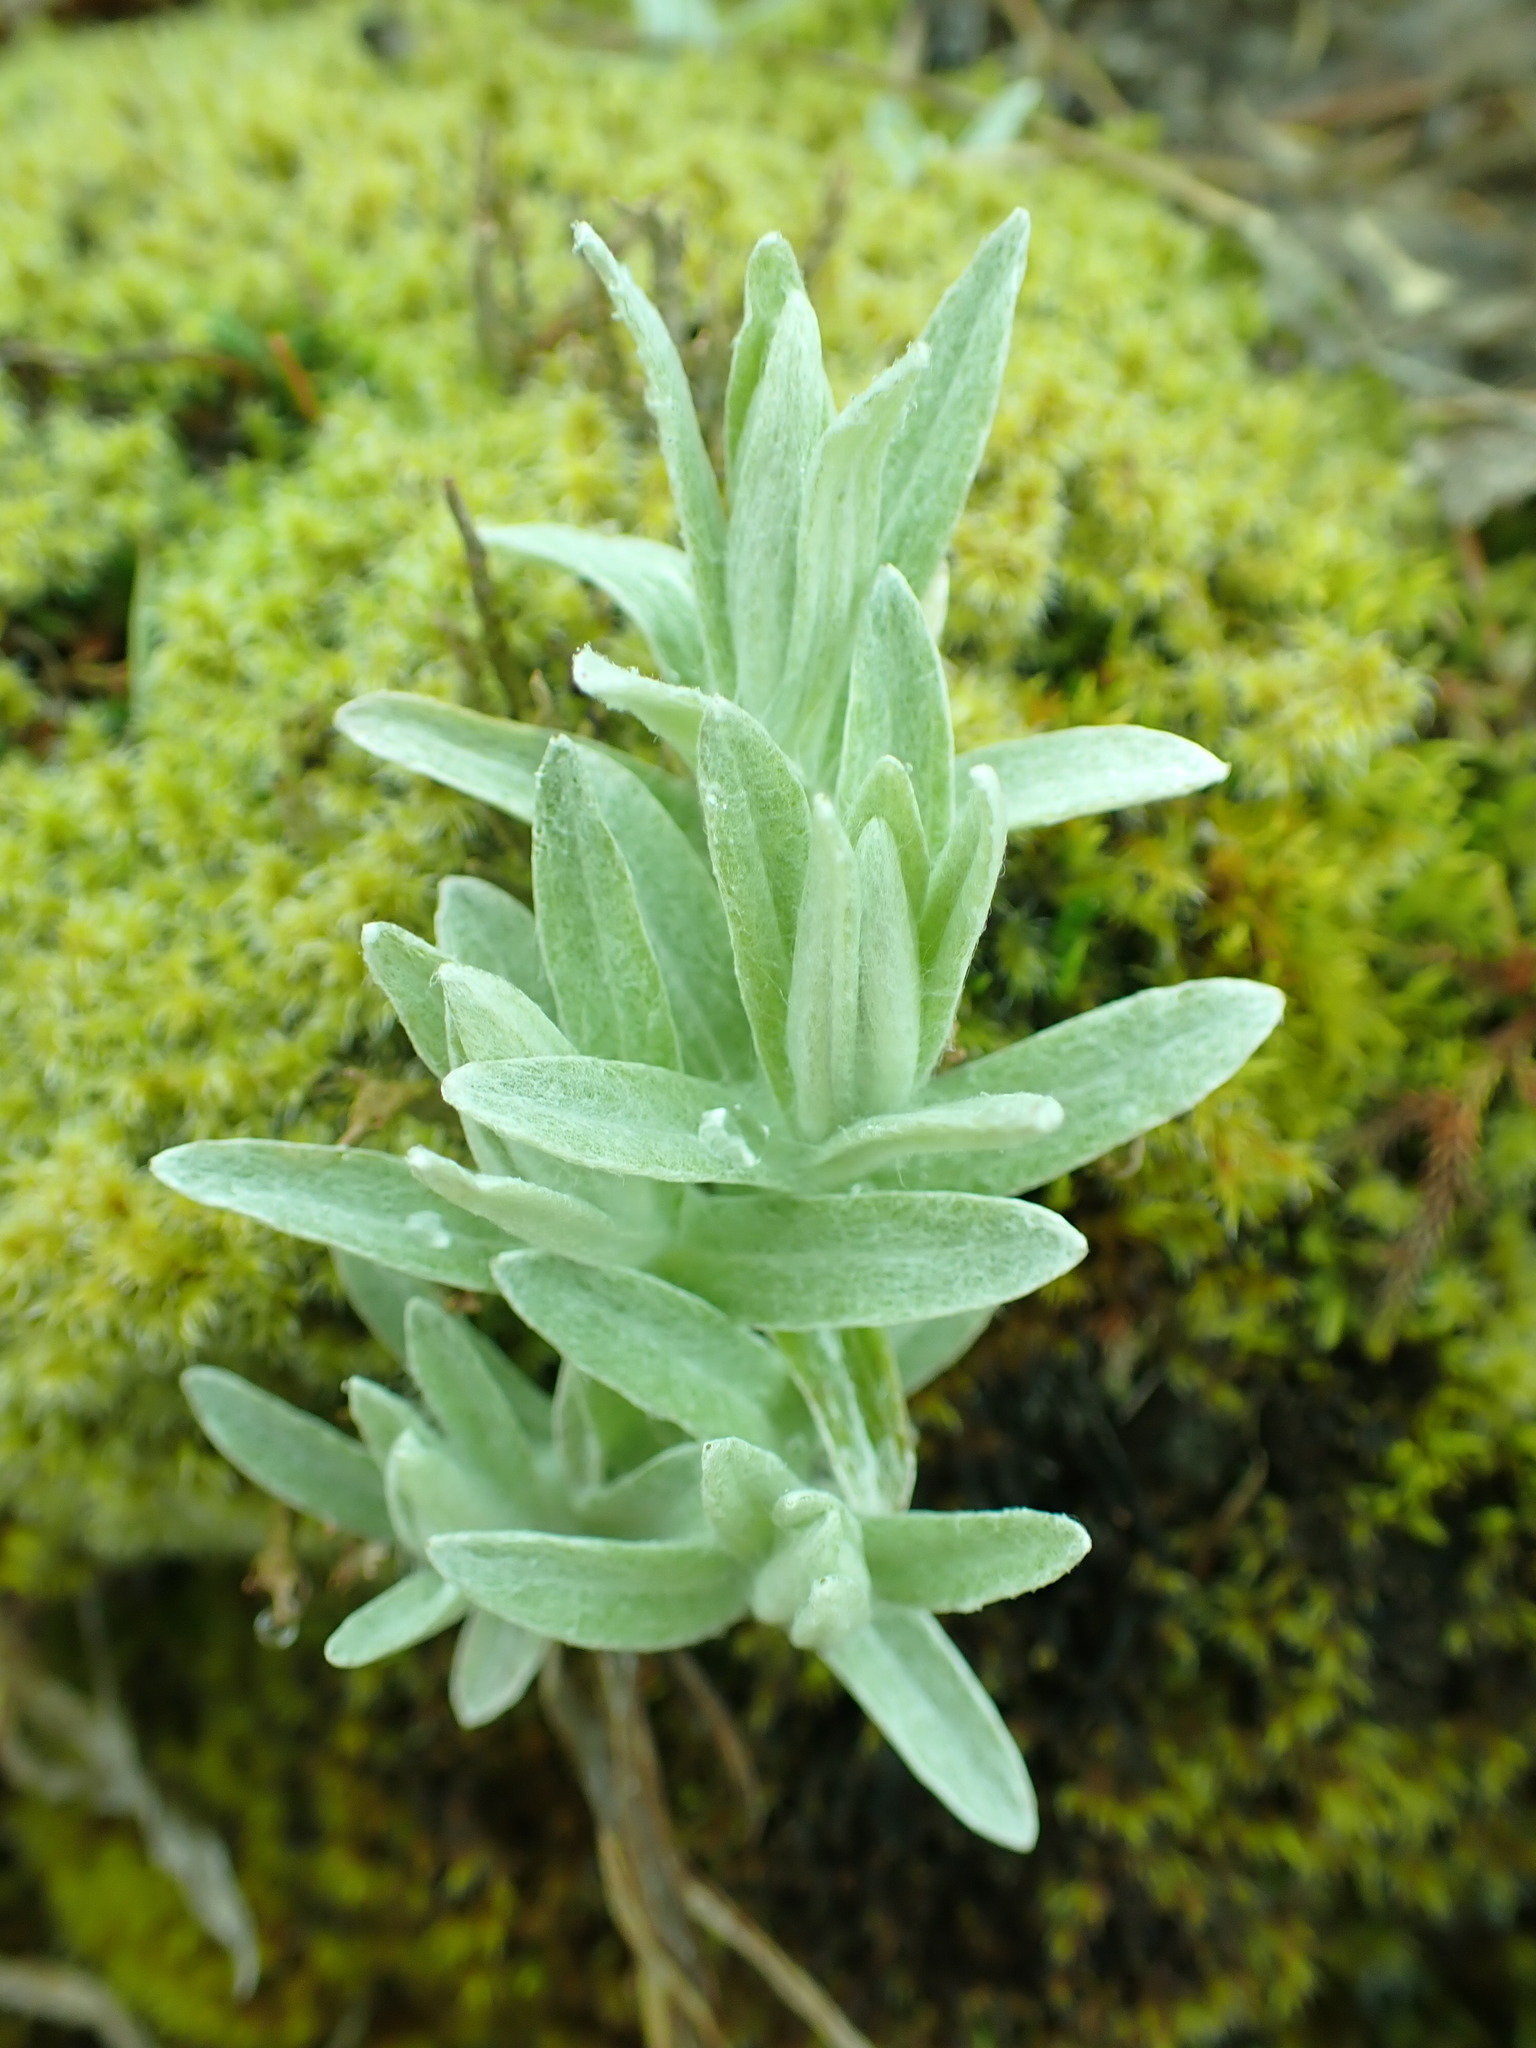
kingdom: Plantae
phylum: Tracheophyta
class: Magnoliopsida
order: Asterales
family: Asteraceae
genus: Anaphalis
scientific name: Anaphalis margaritacea
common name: Pearly everlasting
